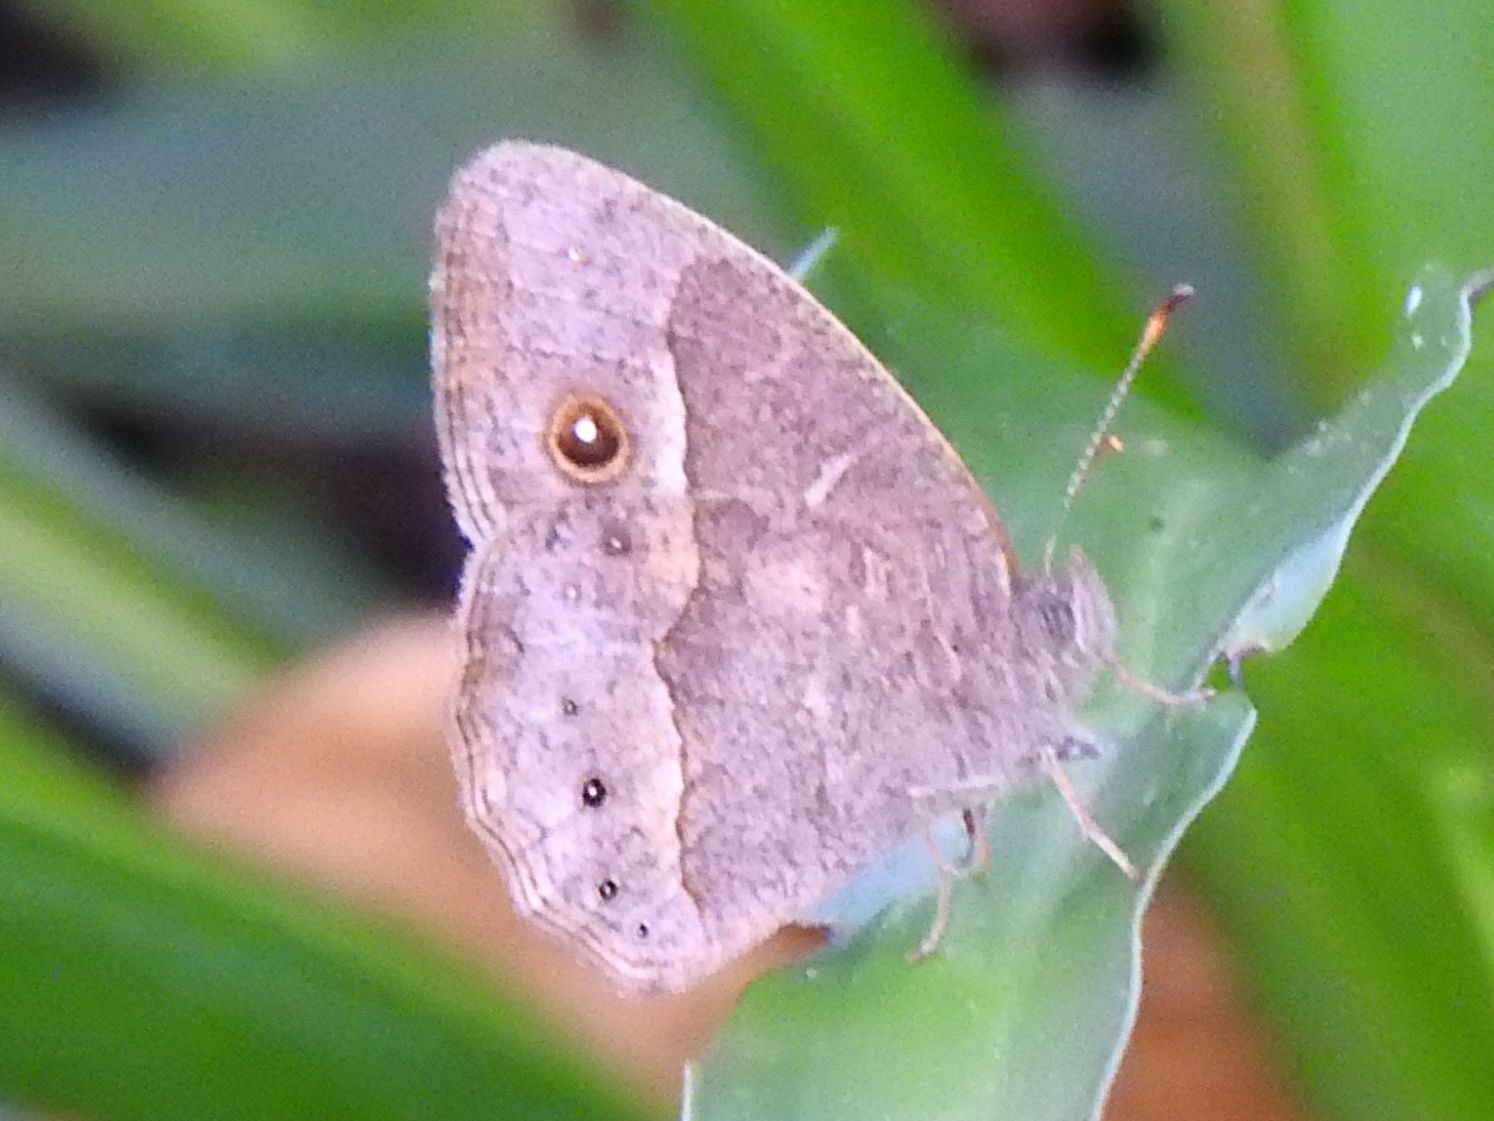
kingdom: Animalia
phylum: Arthropoda
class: Insecta
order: Lepidoptera
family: Nymphalidae
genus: Mycalesis
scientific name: Mycalesis anynana
